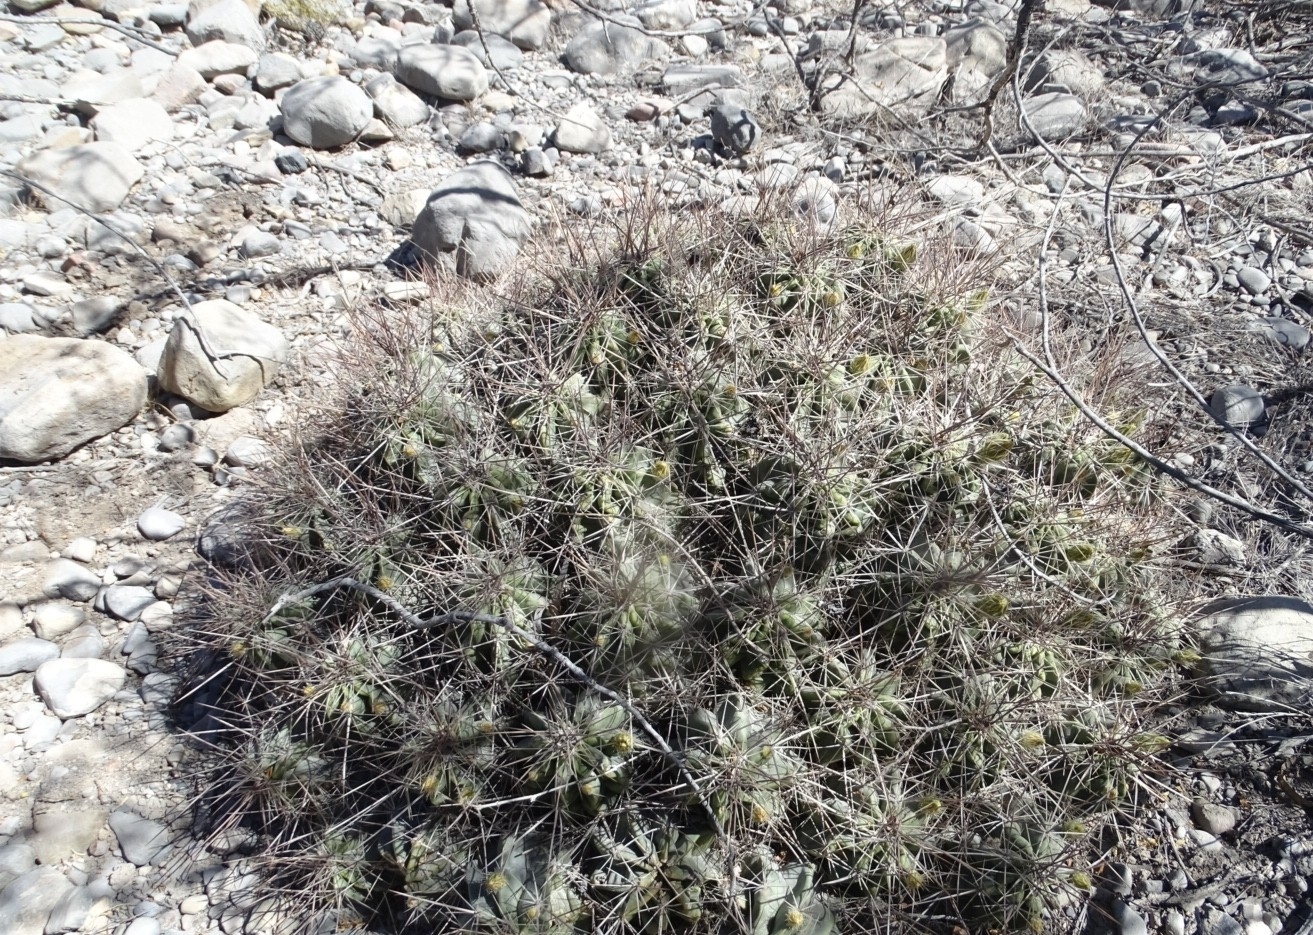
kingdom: Plantae
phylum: Tracheophyta
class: Magnoliopsida
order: Caryophyllales
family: Cactaceae
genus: Echinocereus
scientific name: Echinocereus enneacanthus
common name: Pitaya
